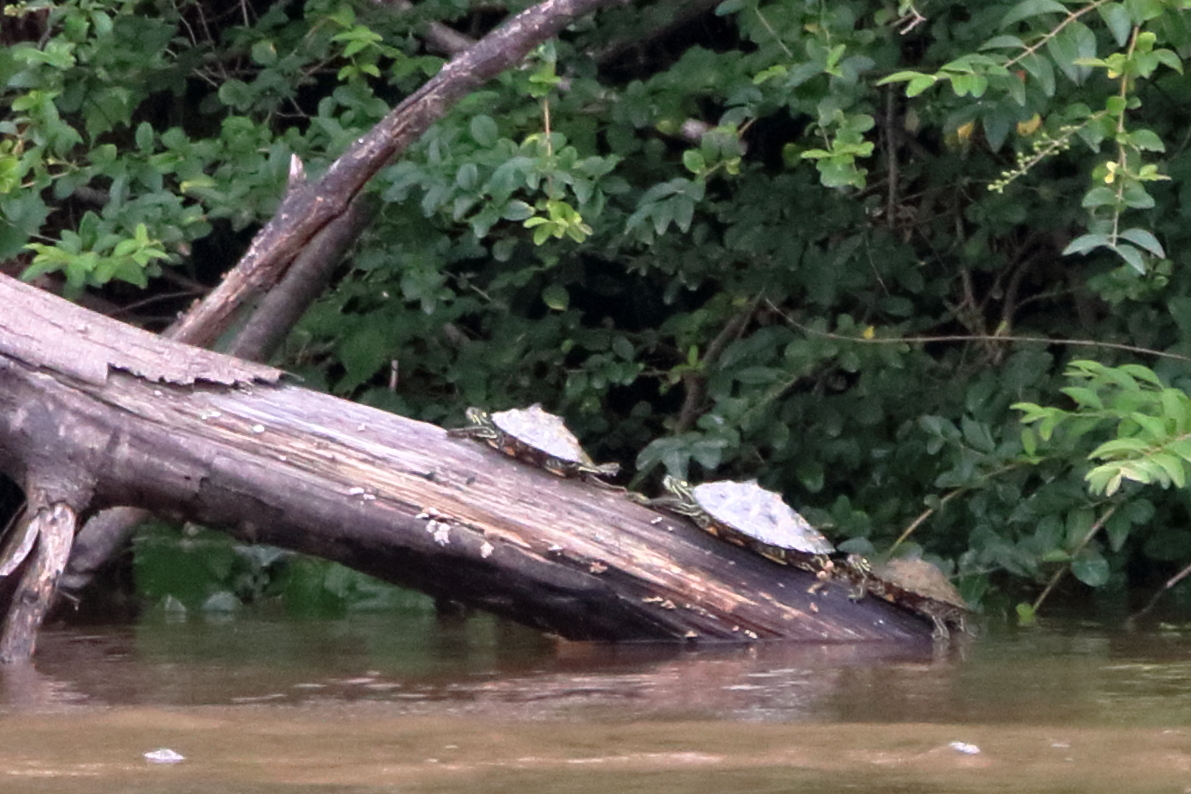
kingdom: Animalia
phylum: Chordata
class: Testudines
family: Emydidae
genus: Graptemys
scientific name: Graptemys oculifera
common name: Ringed map turtle
